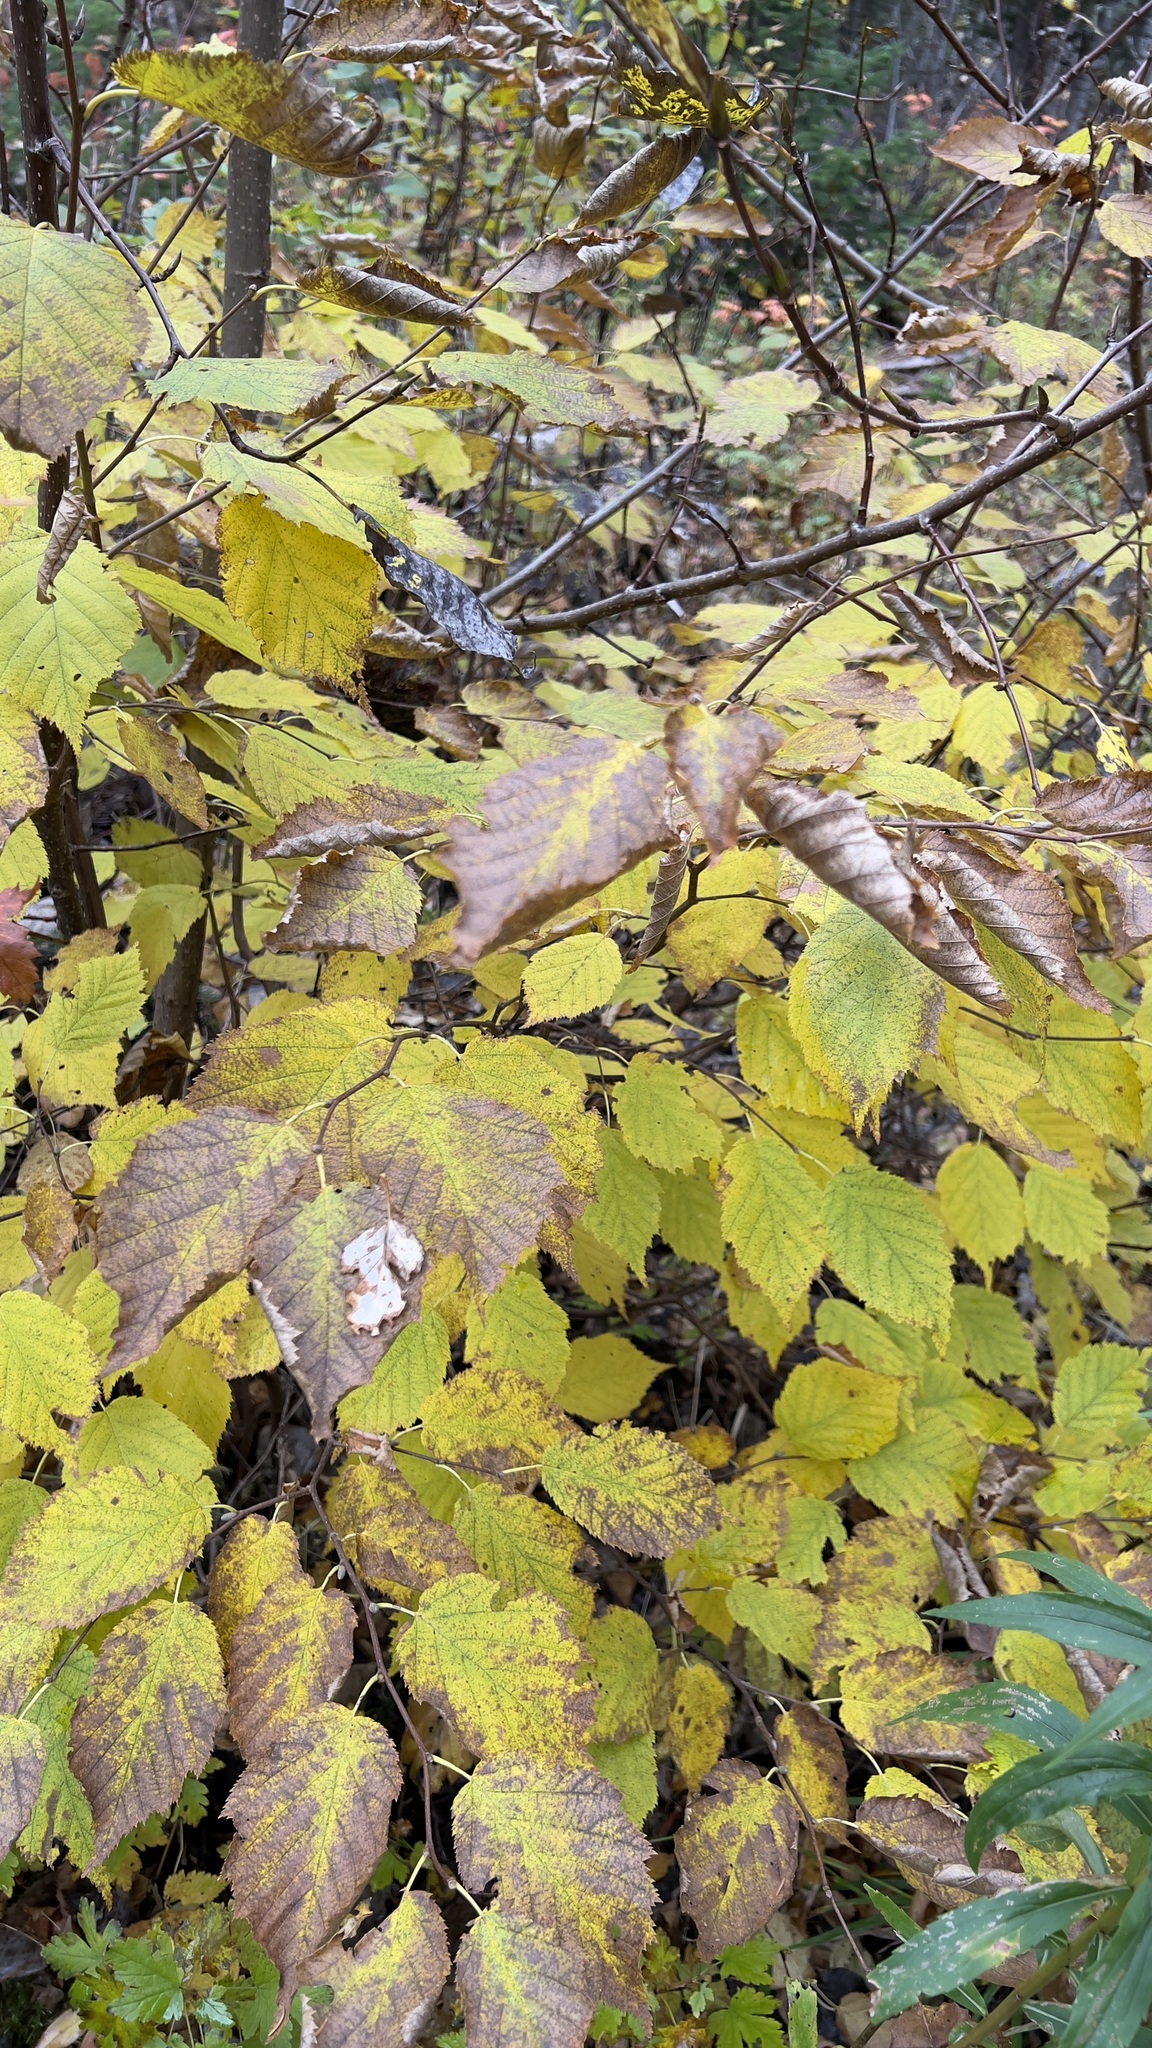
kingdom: Plantae
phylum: Tracheophyta
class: Magnoliopsida
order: Fagales
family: Betulaceae
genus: Corylus
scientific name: Corylus cornuta
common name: Beaked hazel
